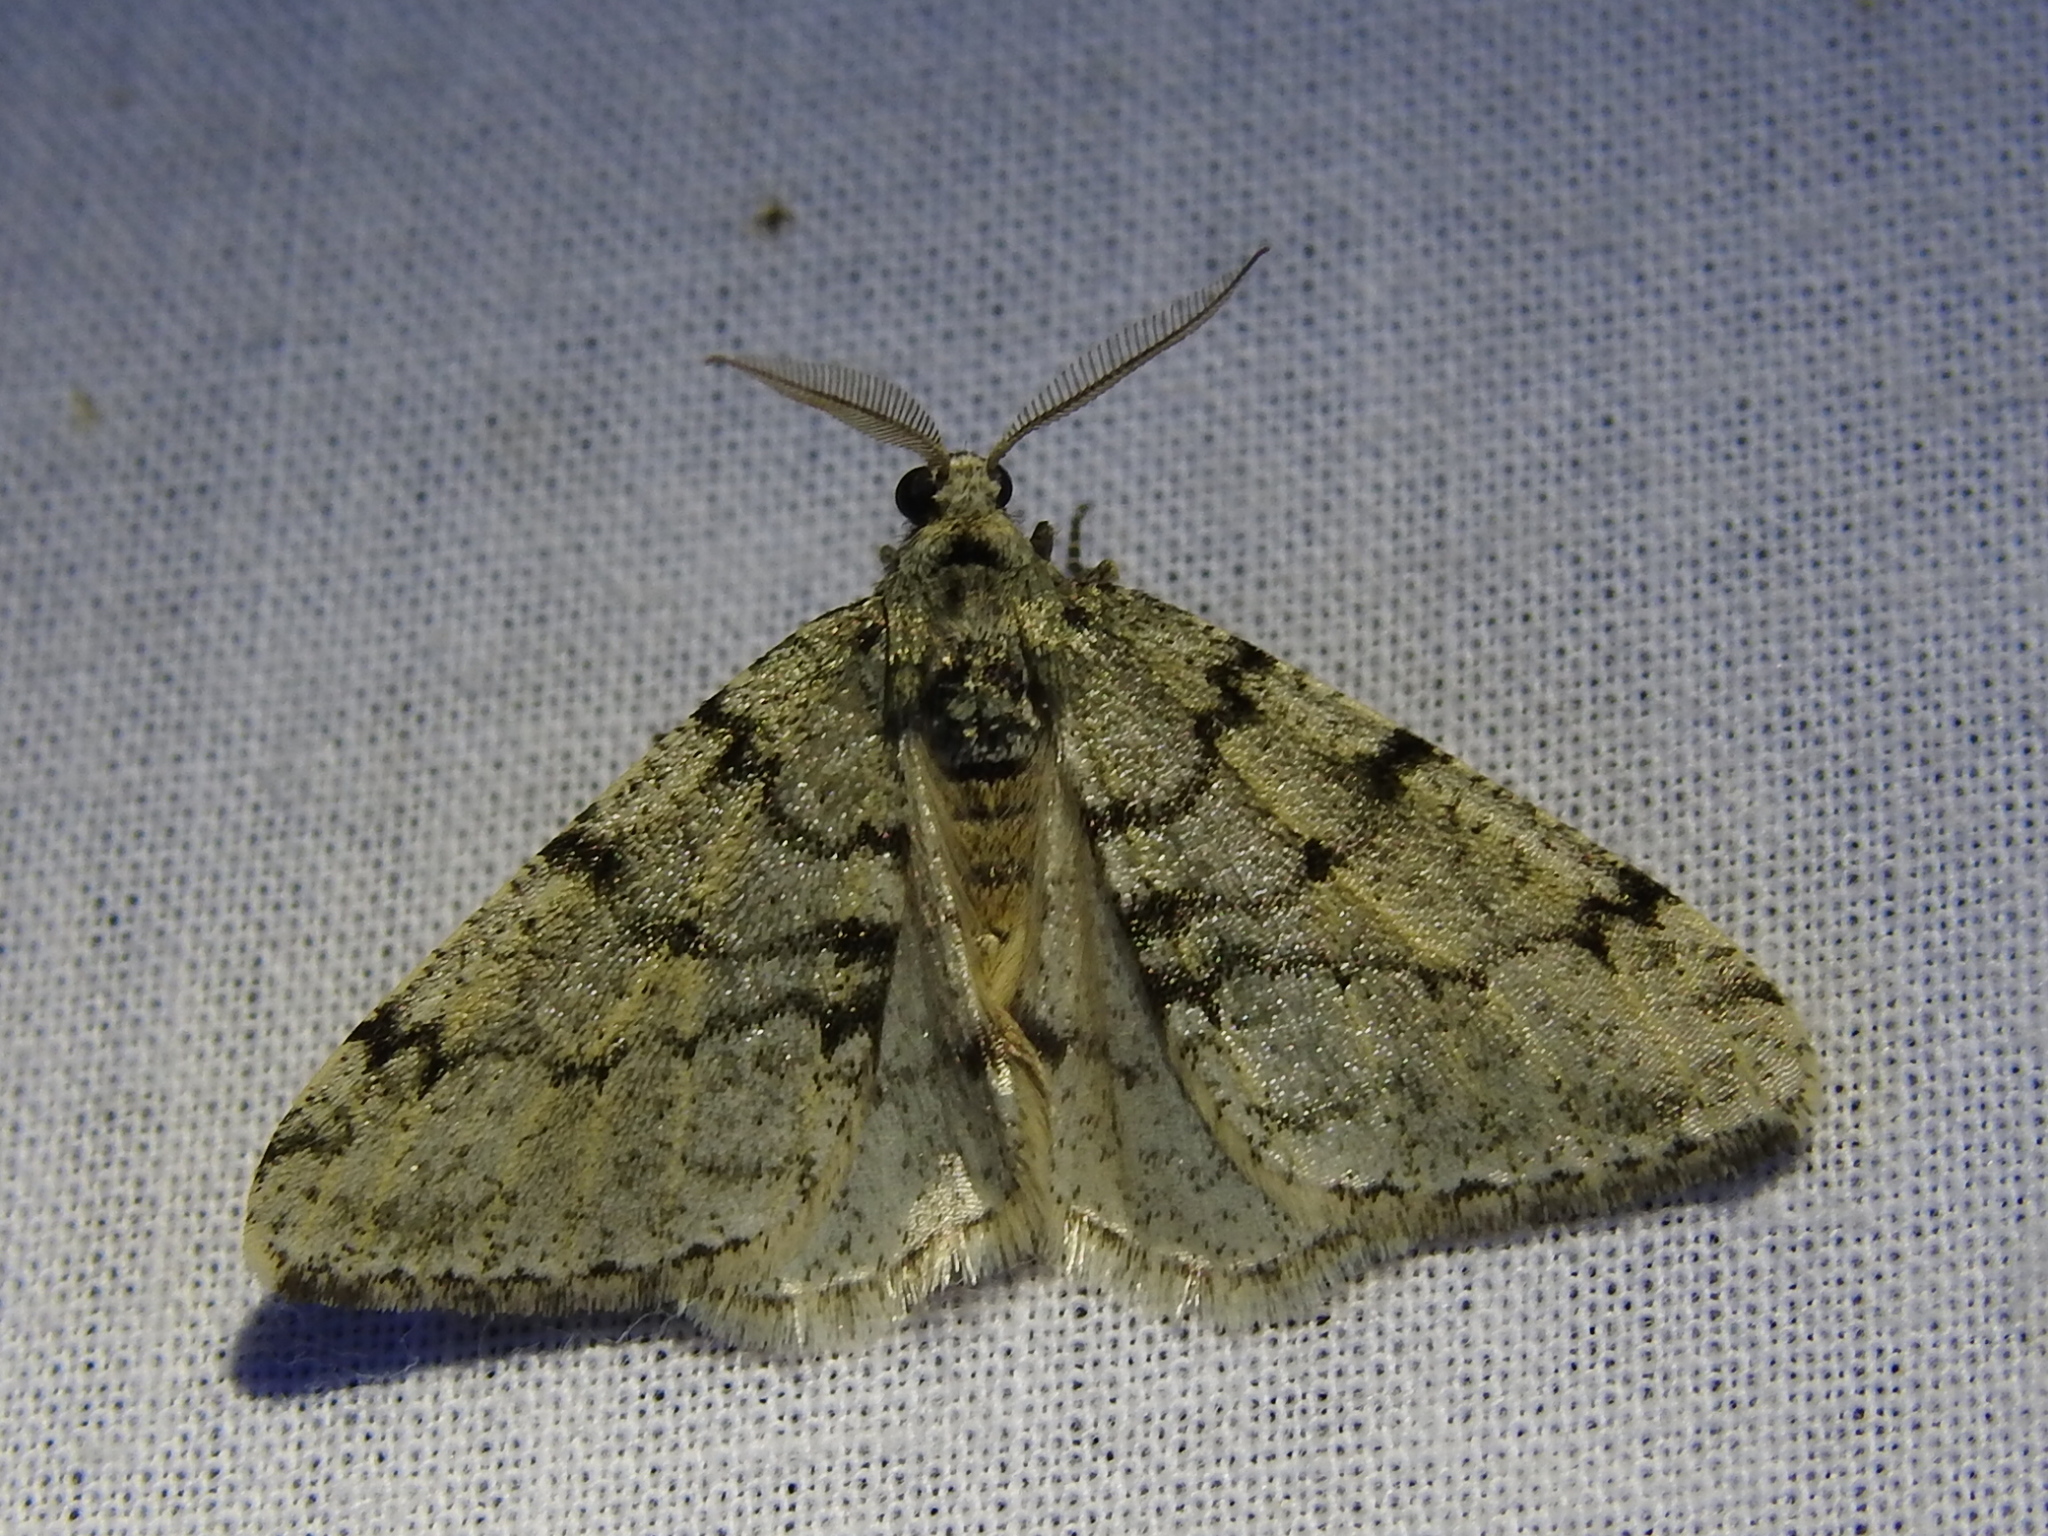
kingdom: Animalia
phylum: Arthropoda
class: Insecta
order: Lepidoptera
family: Geometridae
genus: Phigalia
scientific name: Phigalia strigataria
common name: Small phigalia
